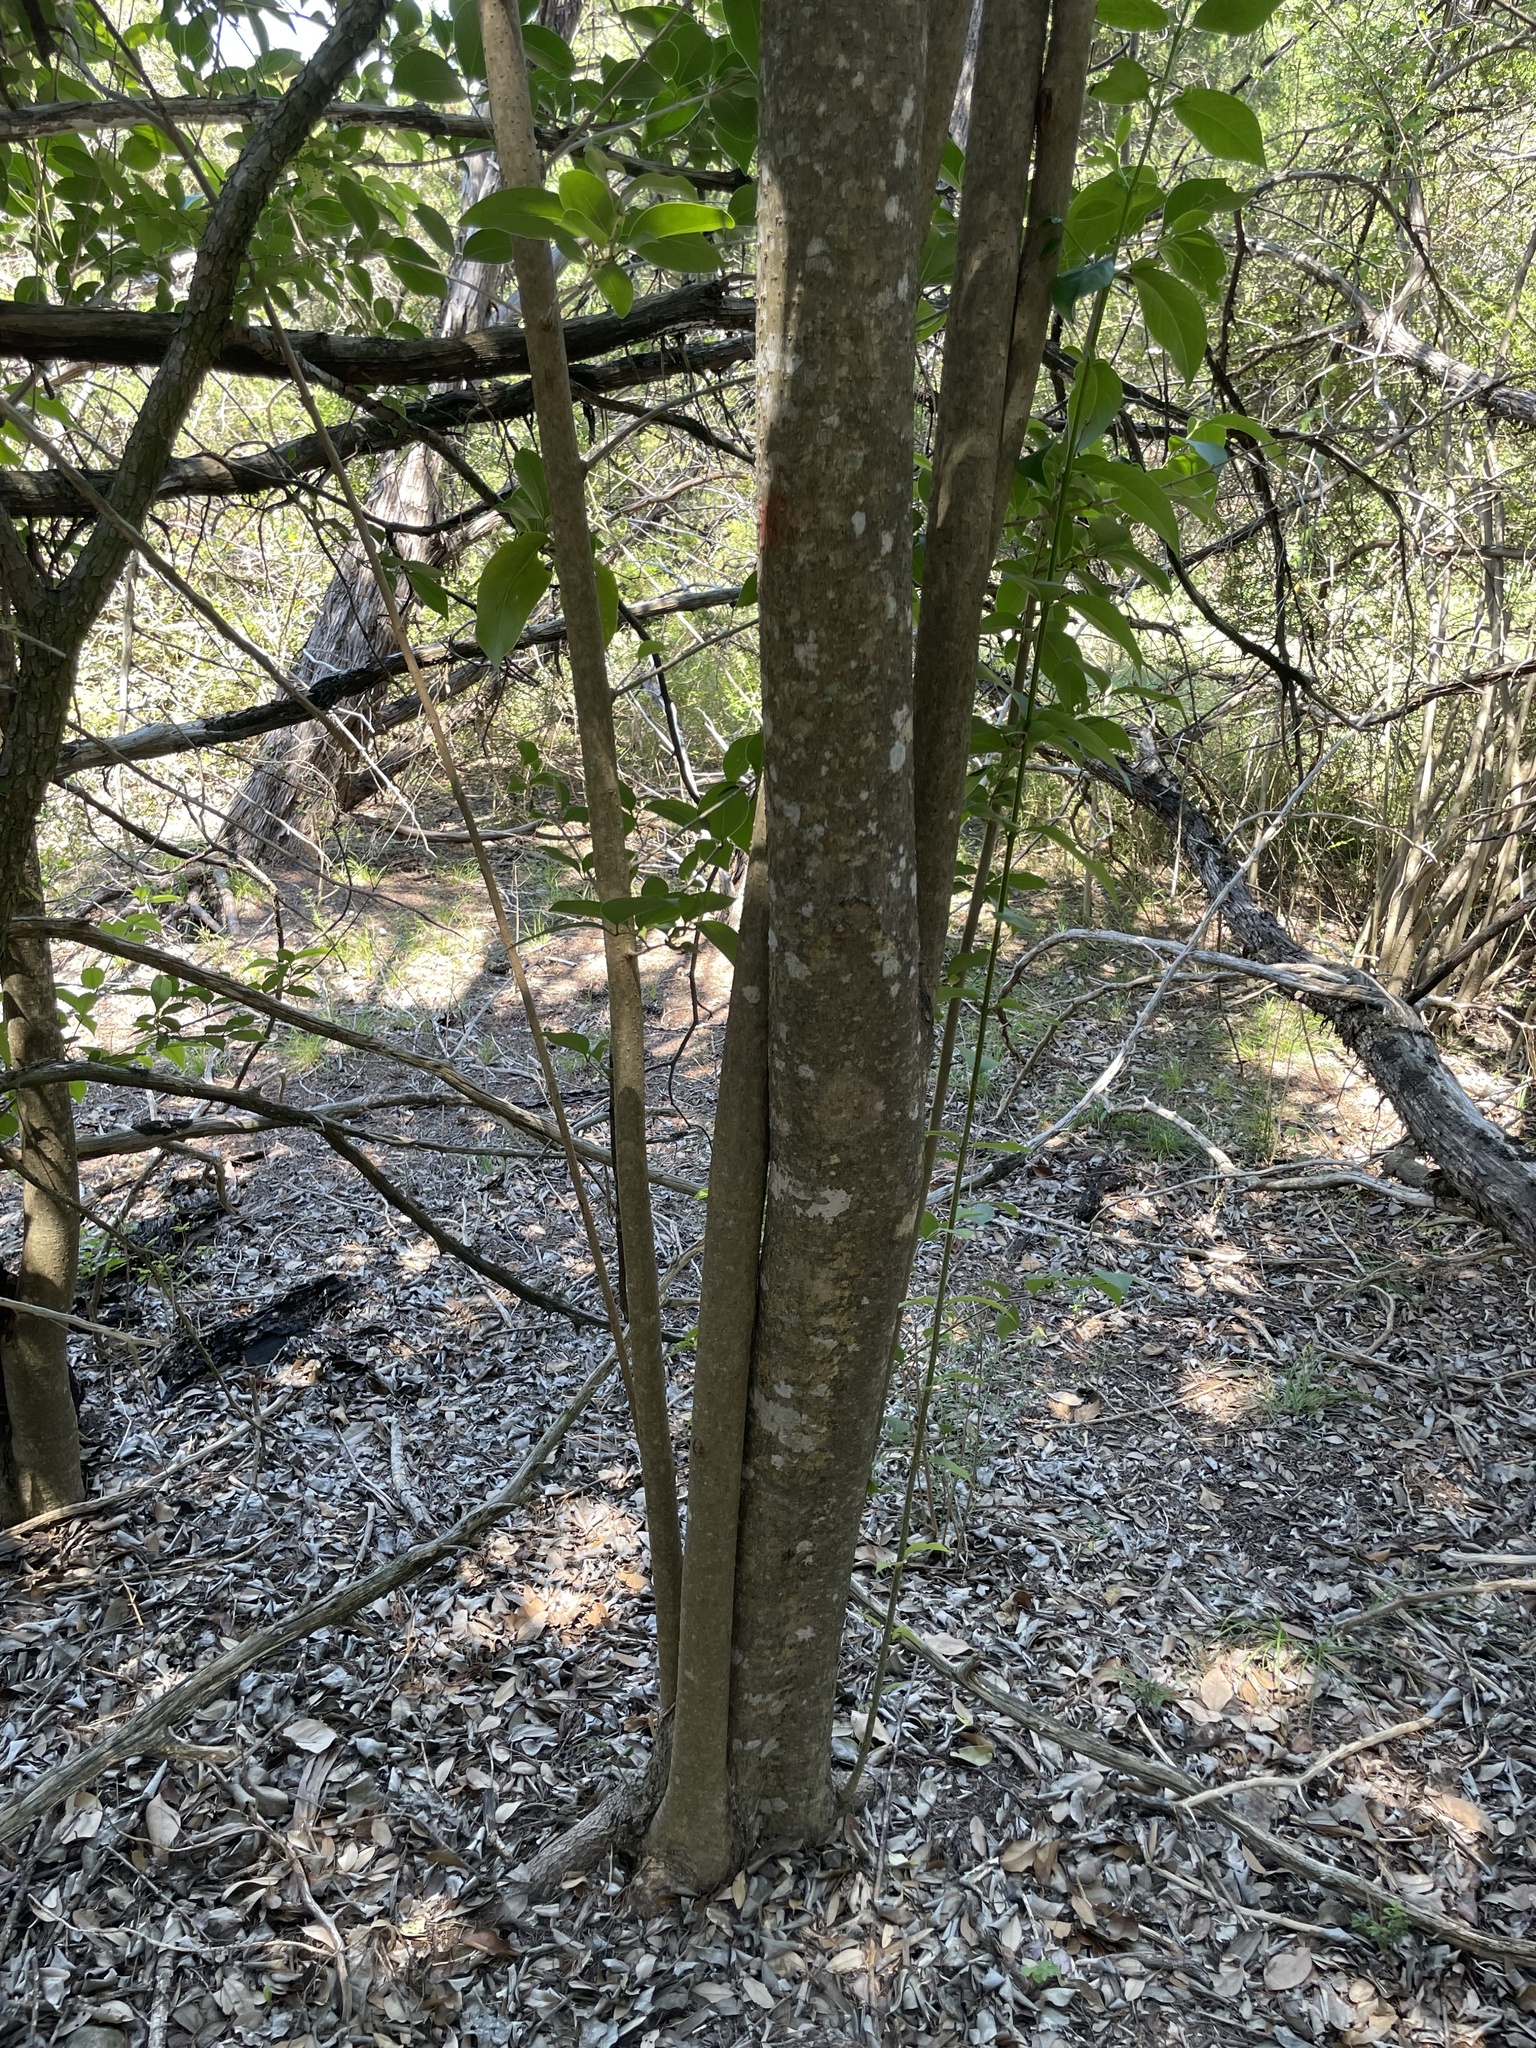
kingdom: Plantae
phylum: Tracheophyta
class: Magnoliopsida
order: Lamiales
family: Oleaceae
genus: Ligustrum
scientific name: Ligustrum lucidum
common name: Glossy privet
